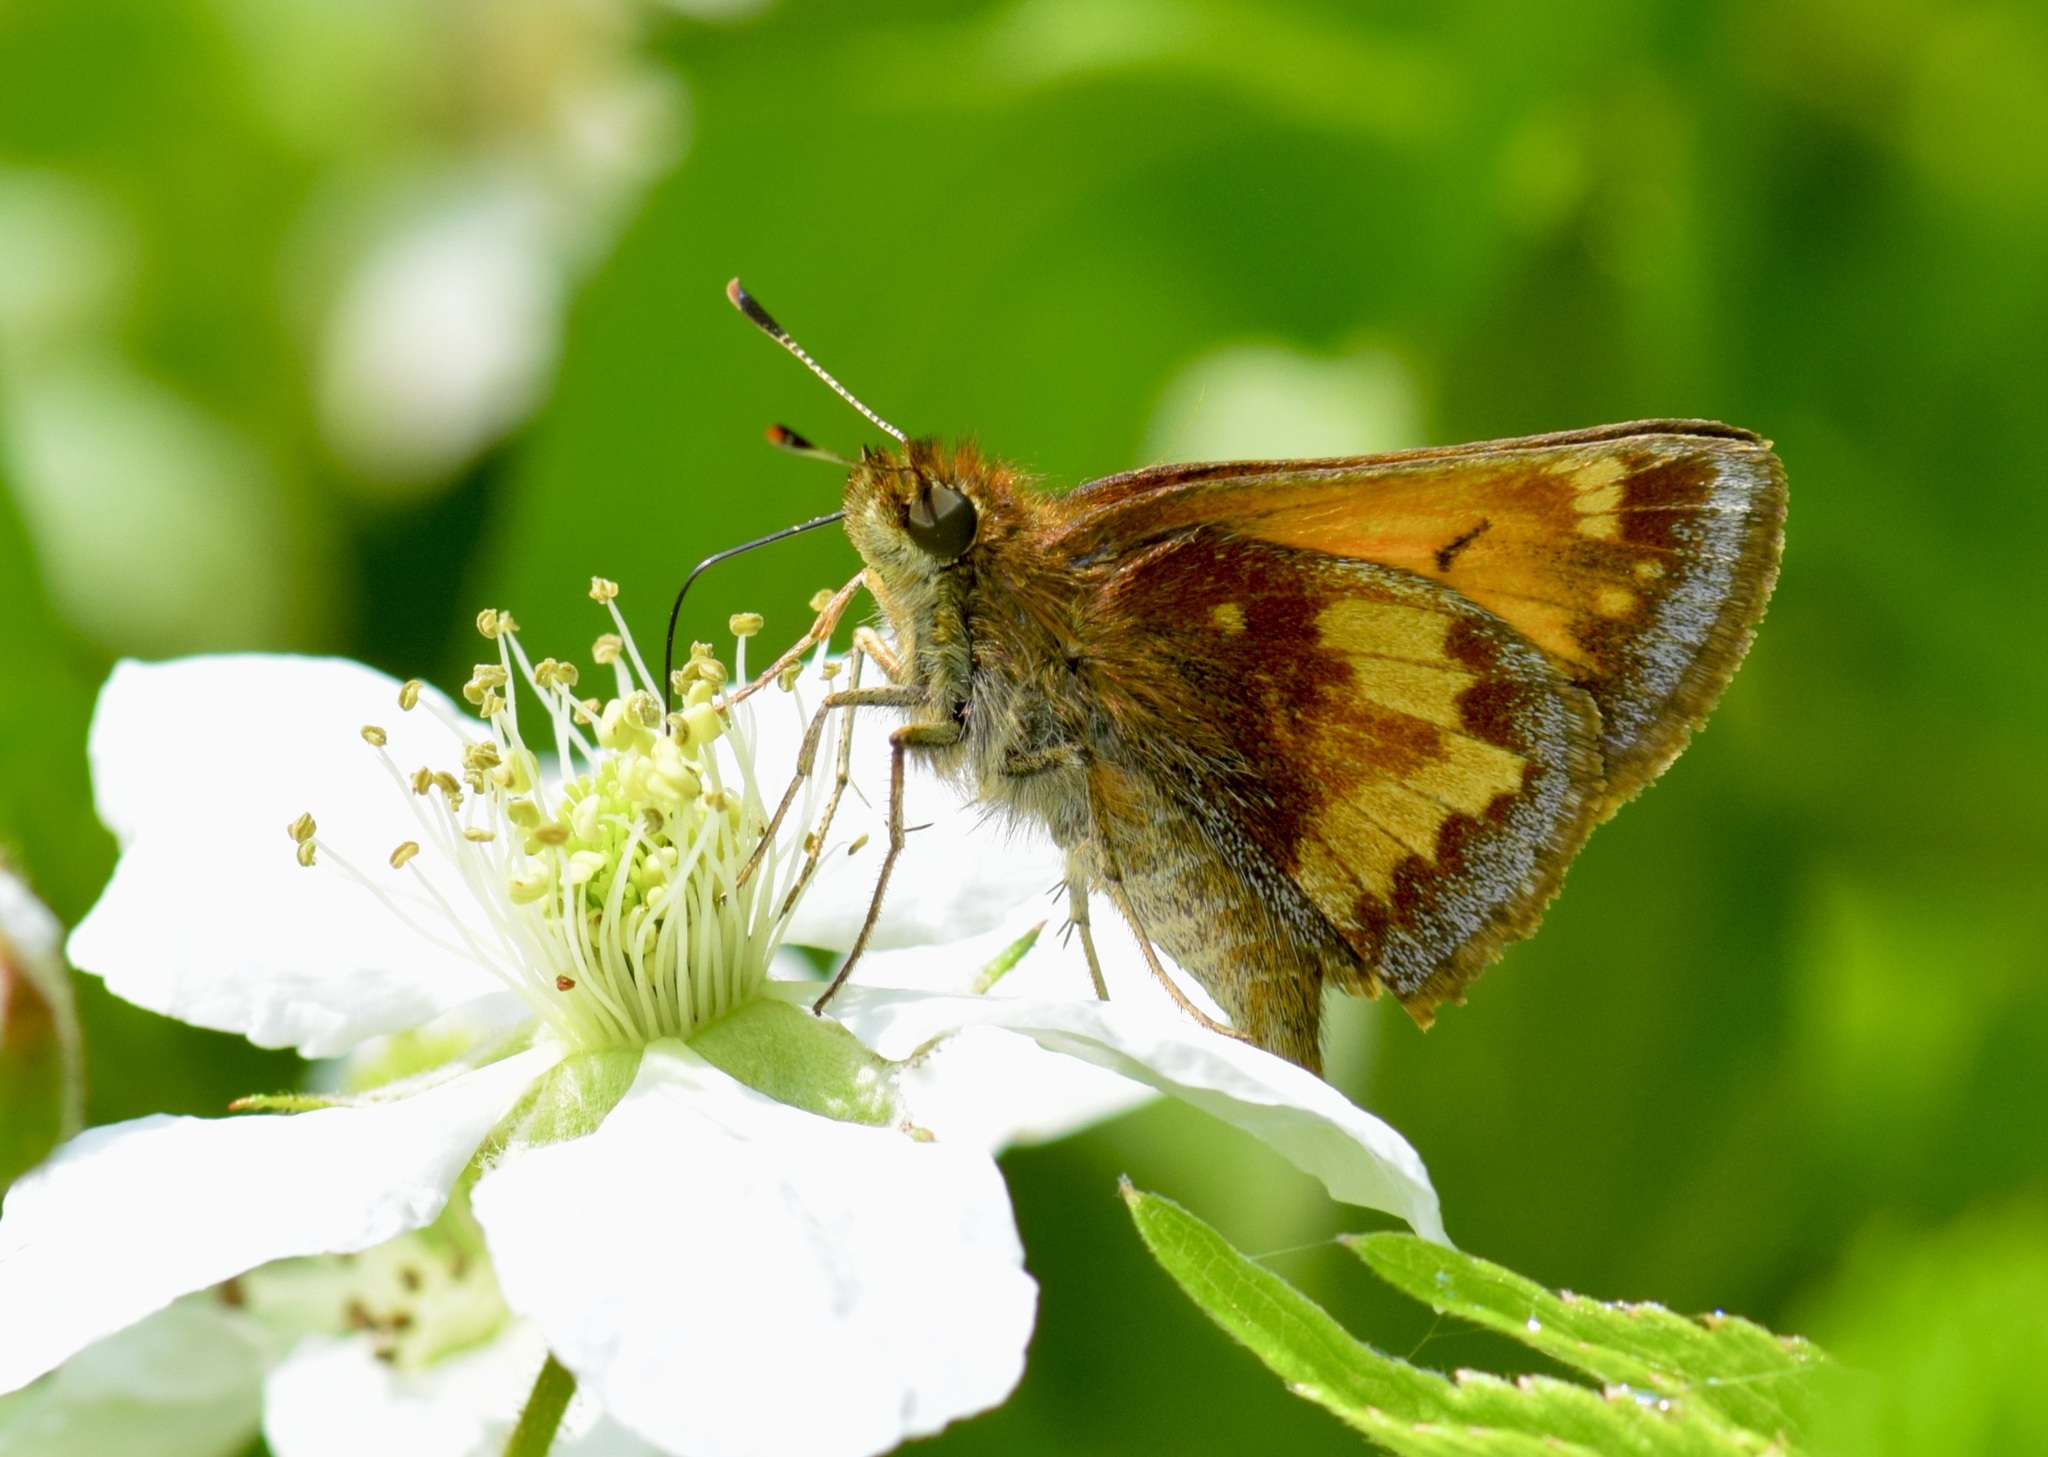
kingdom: Animalia
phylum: Arthropoda
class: Insecta
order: Lepidoptera
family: Hesperiidae
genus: Lon
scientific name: Lon hobomok
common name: Hobomok skipper
